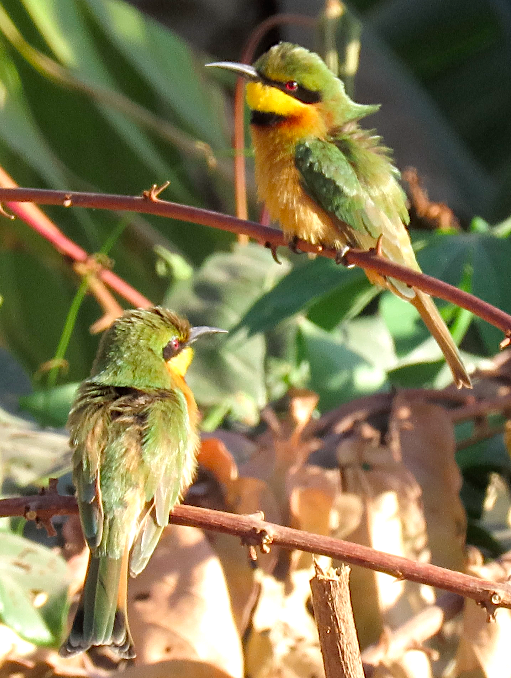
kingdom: Animalia
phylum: Chordata
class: Aves
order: Coraciiformes
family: Meropidae
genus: Merops
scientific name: Merops pusillus
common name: Little bee-eater
